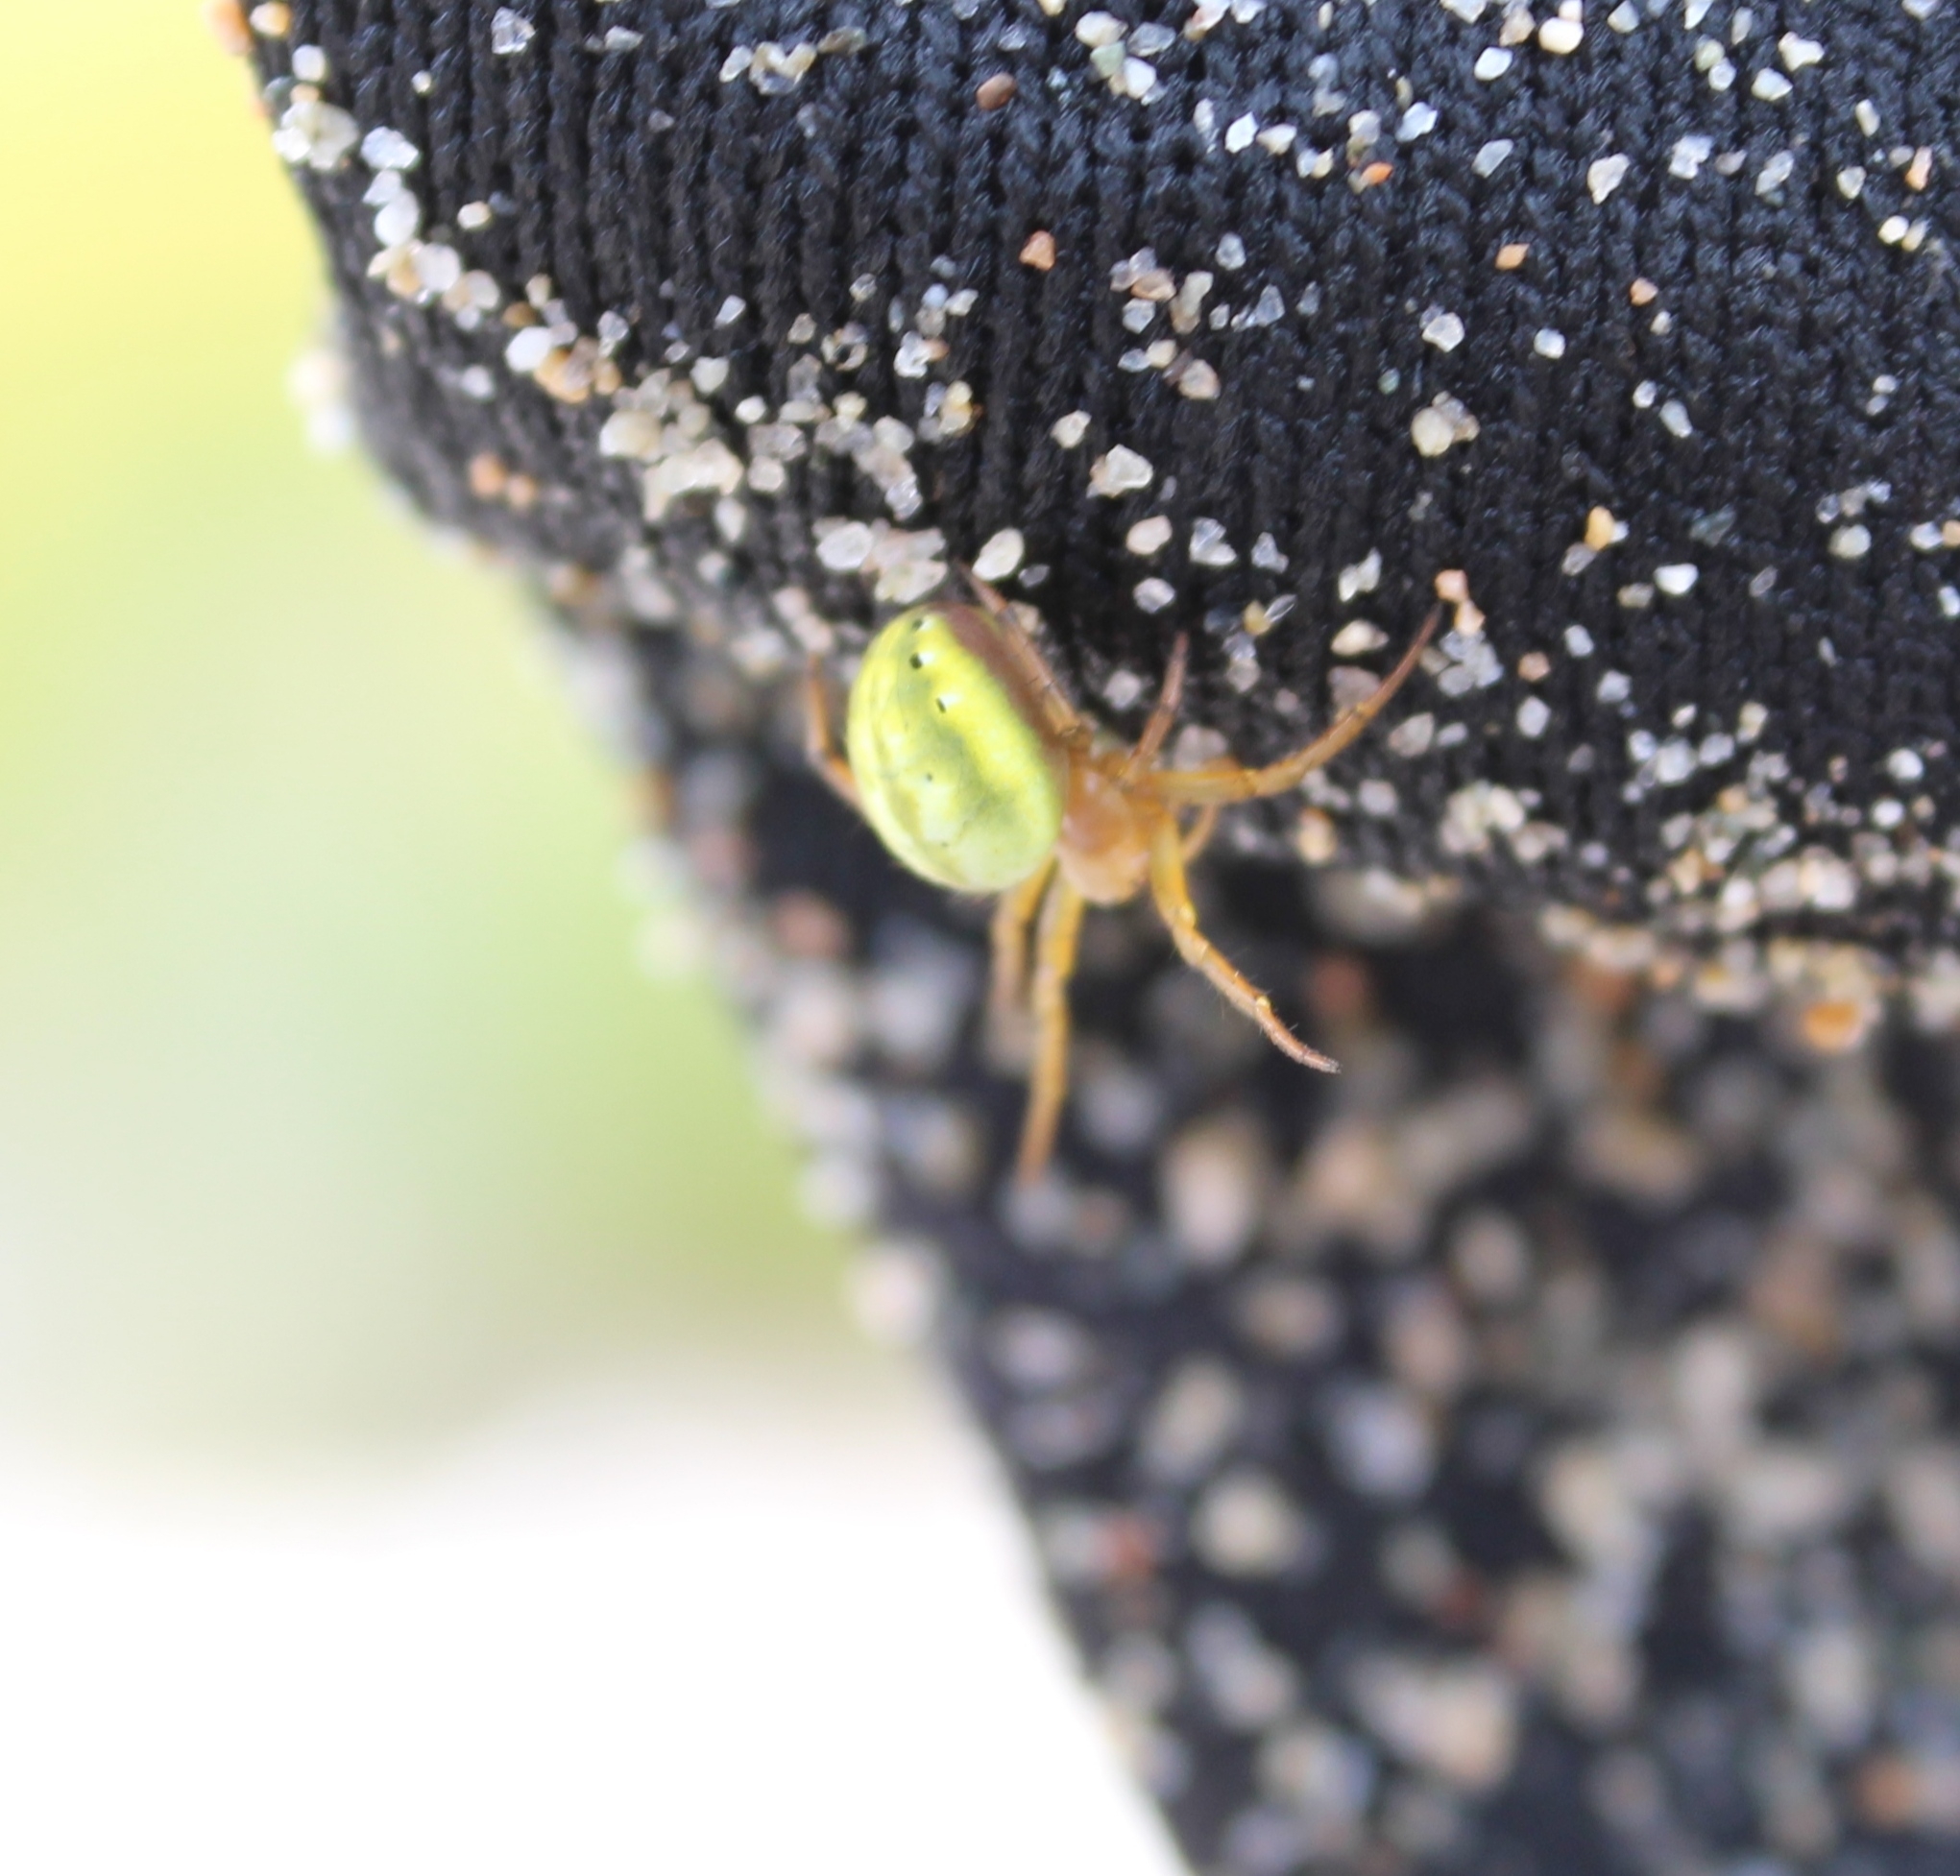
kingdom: Animalia
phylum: Arthropoda
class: Arachnida
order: Araneae
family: Araneidae
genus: Araniella
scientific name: Araniella cucurbitina
